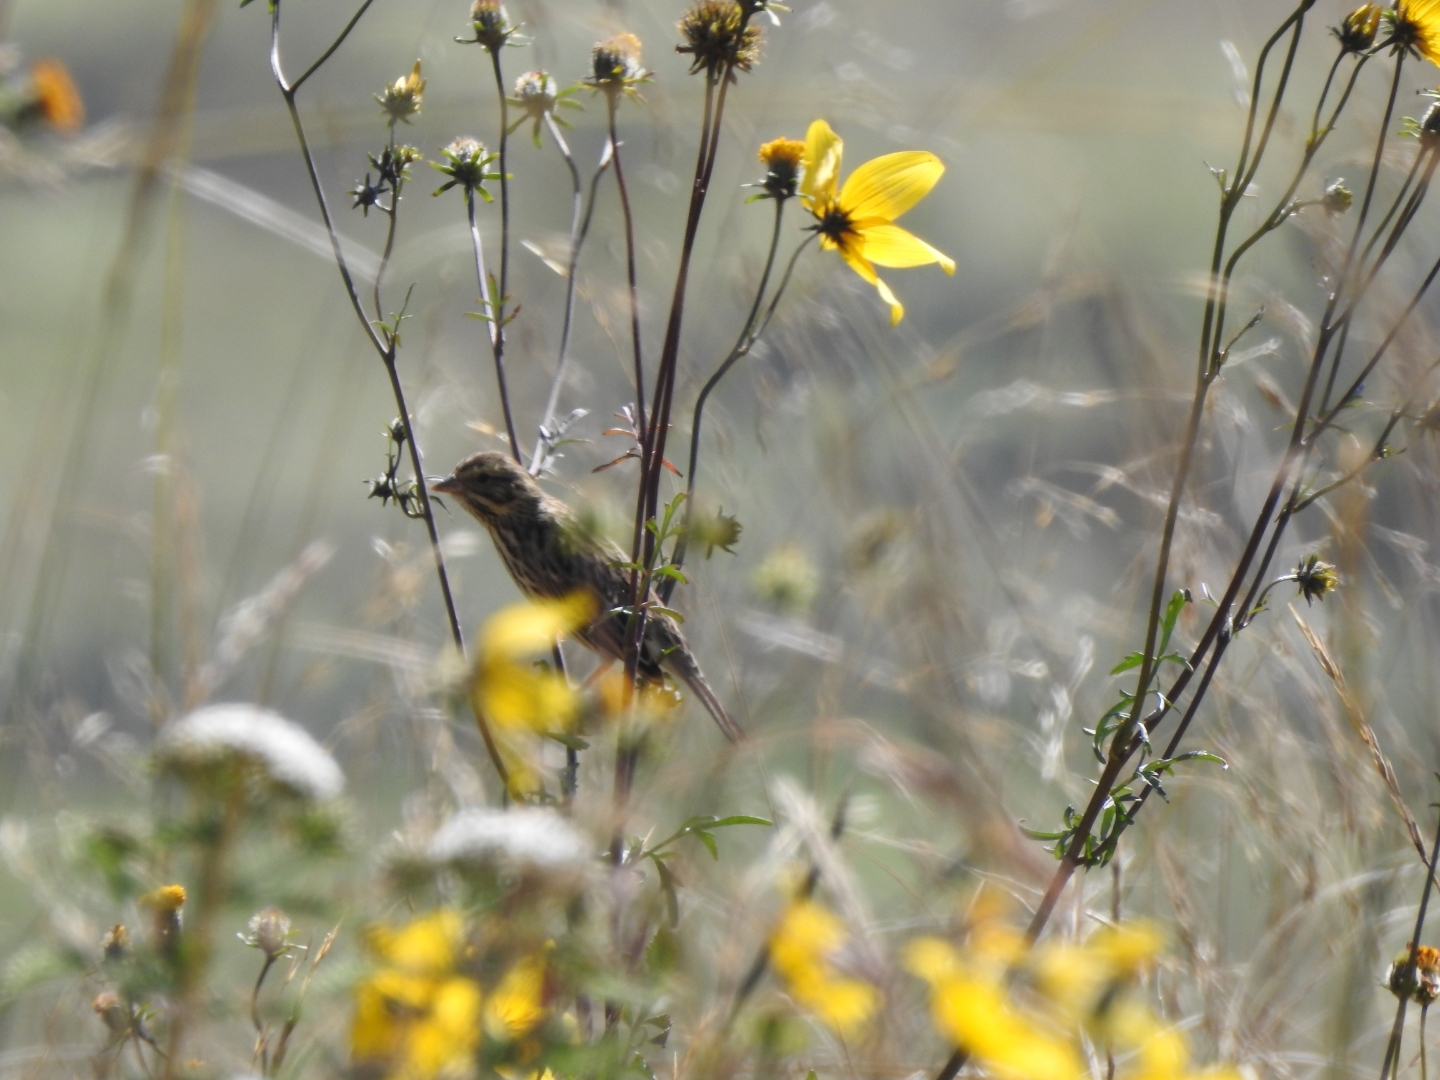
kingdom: Animalia
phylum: Chordata
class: Aves
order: Passeriformes
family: Passerellidae
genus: Passerculus
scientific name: Passerculus sandwichensis
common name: Savannah sparrow
